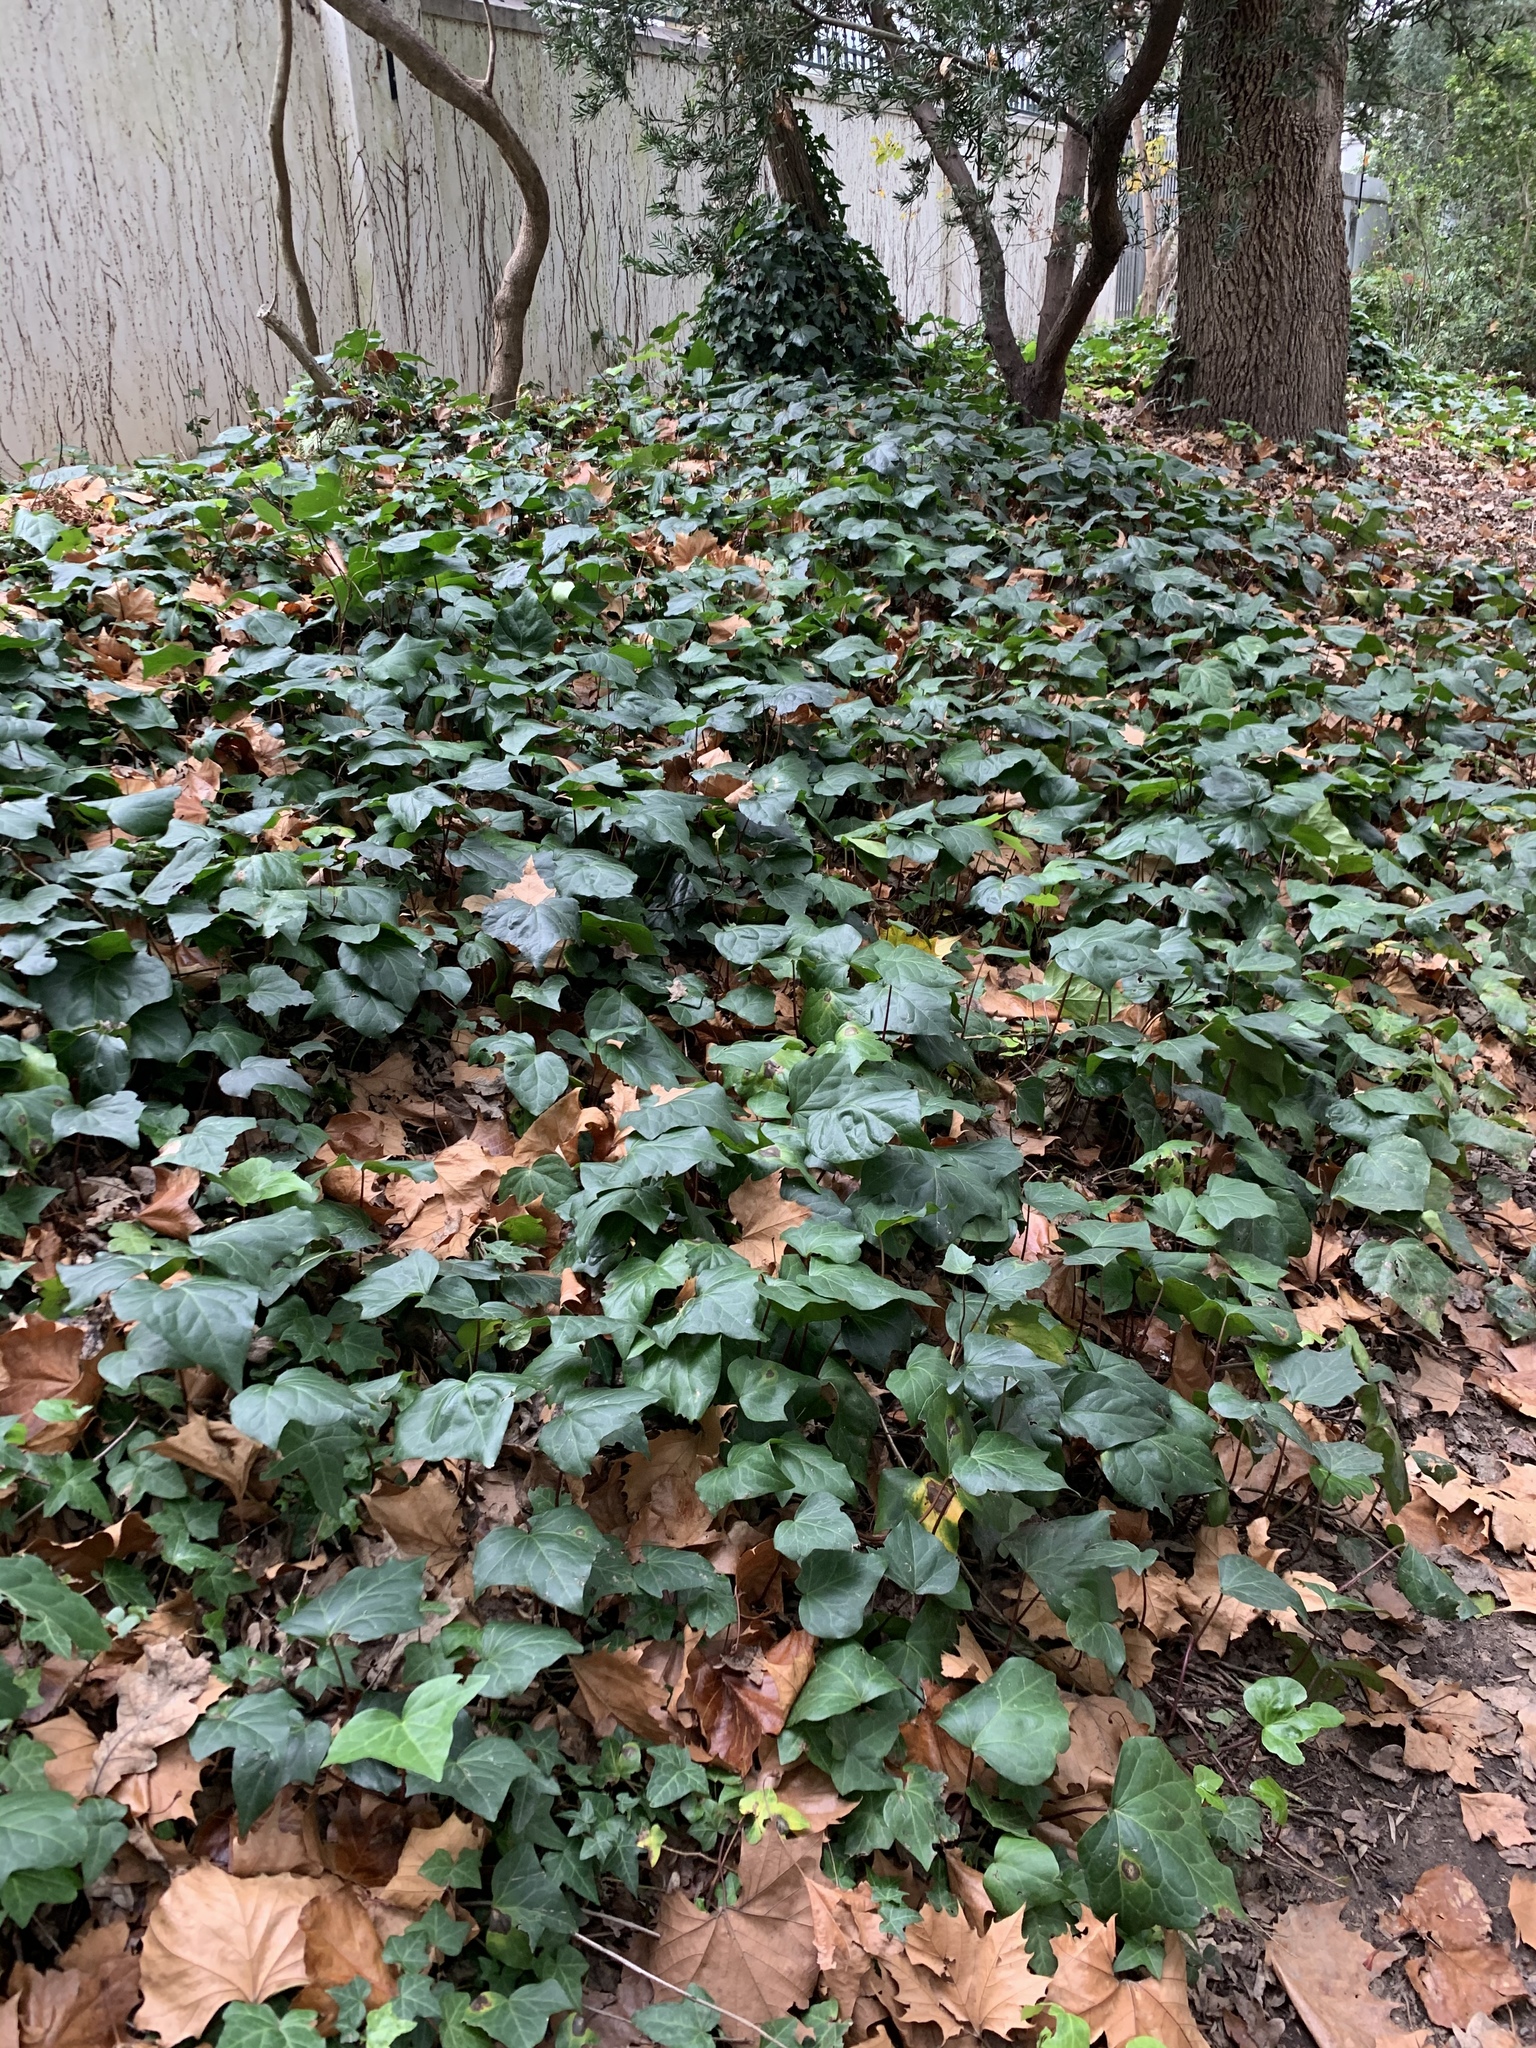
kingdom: Plantae
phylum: Tracheophyta
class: Magnoliopsida
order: Apiales
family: Araliaceae
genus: Hedera
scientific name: Hedera canariensis
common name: Madeira ivy
